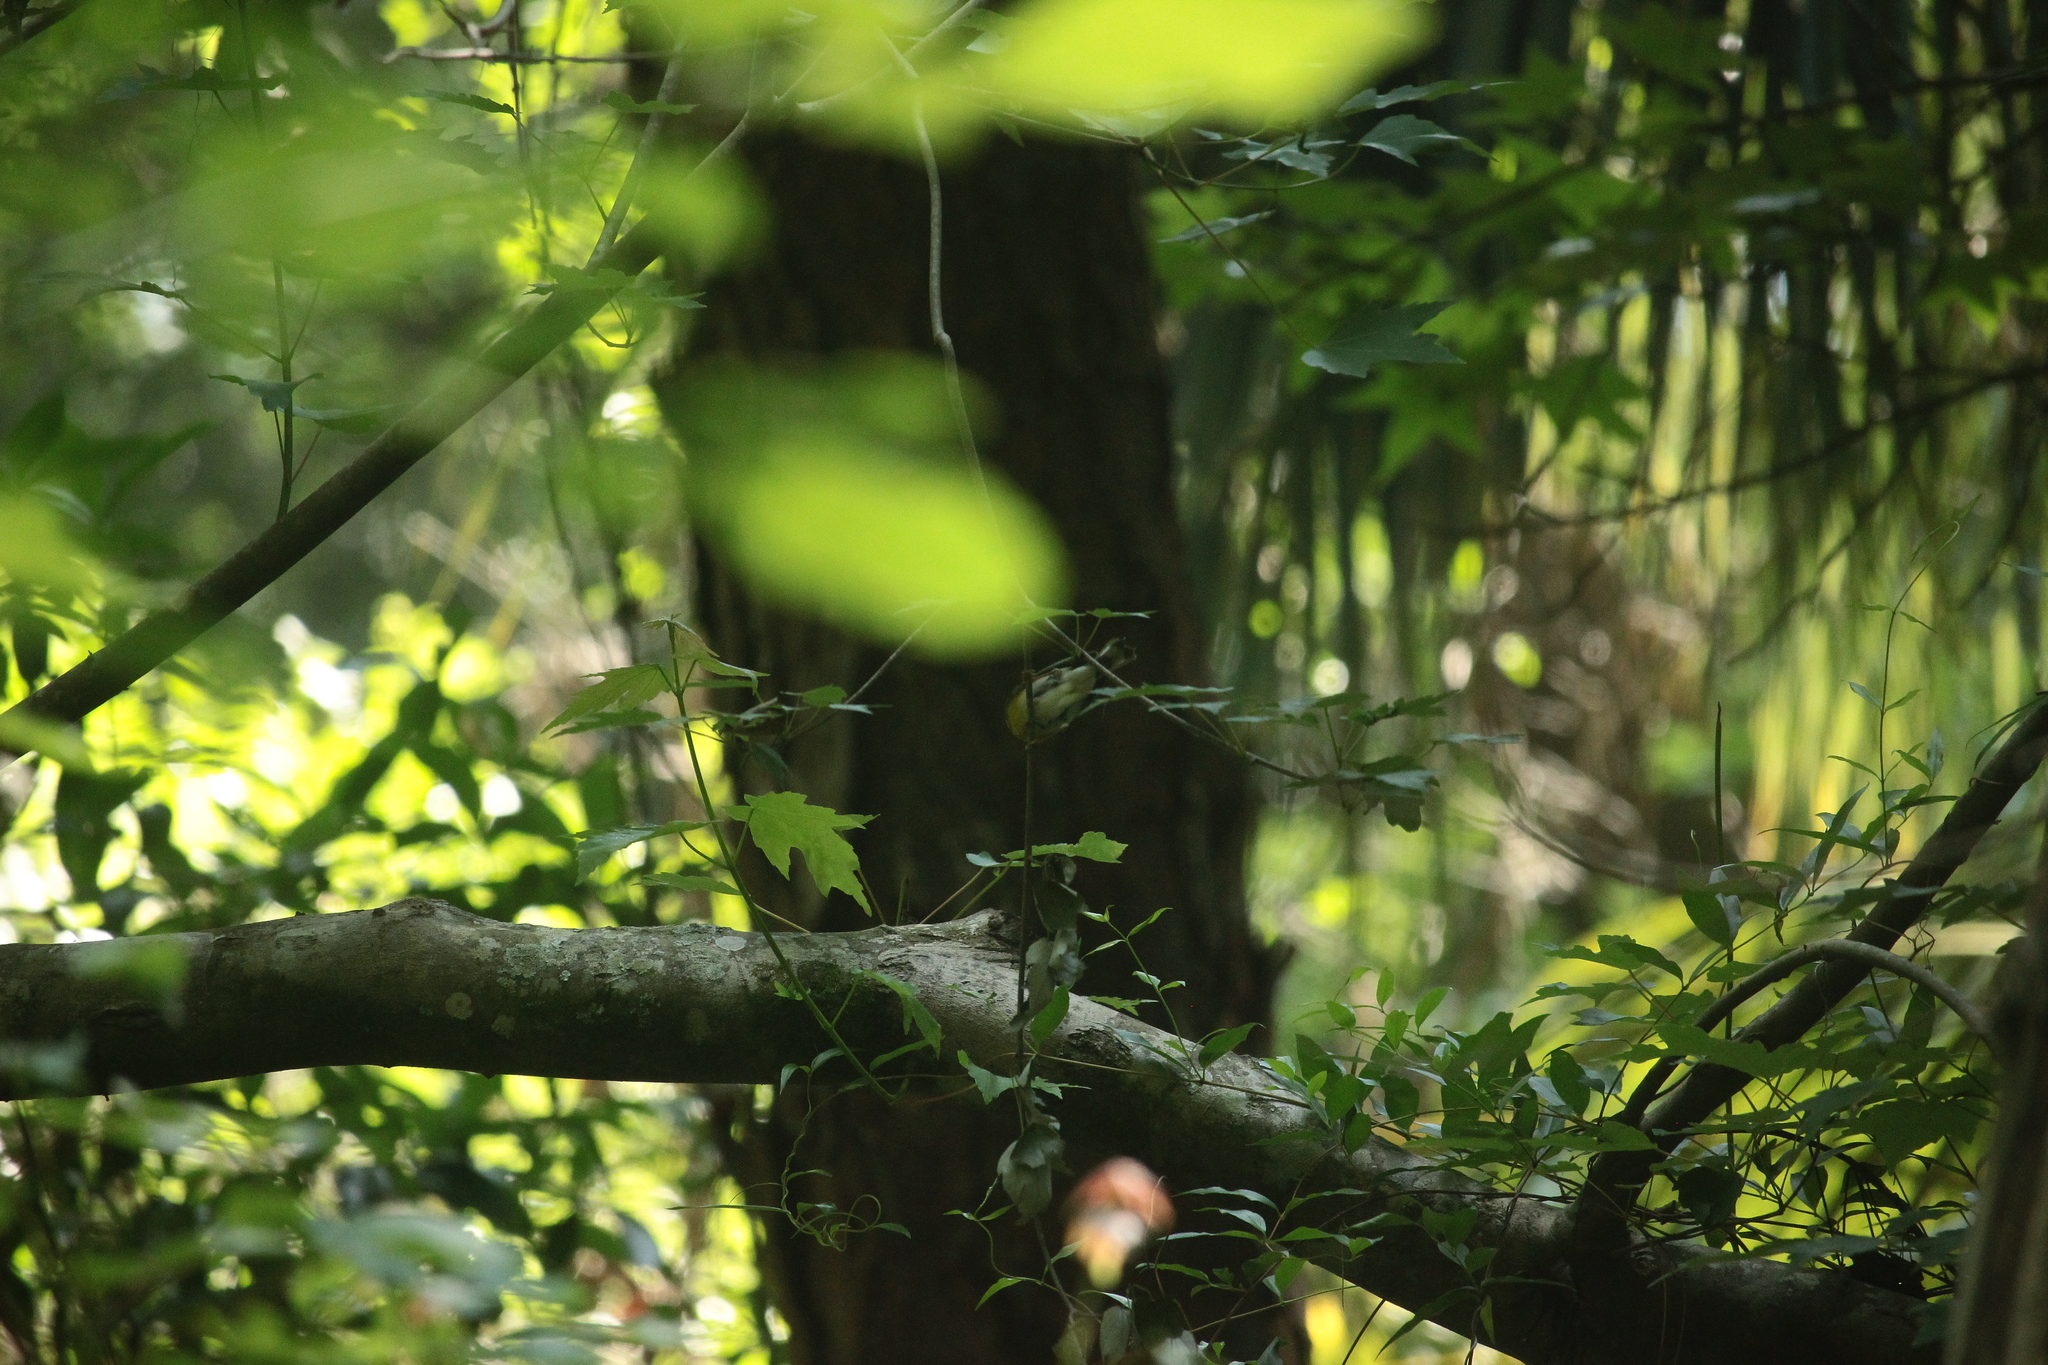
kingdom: Animalia
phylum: Chordata
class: Aves
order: Passeriformes
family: Parulidae
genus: Setophaga
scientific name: Setophaga americana
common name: Northern parula
